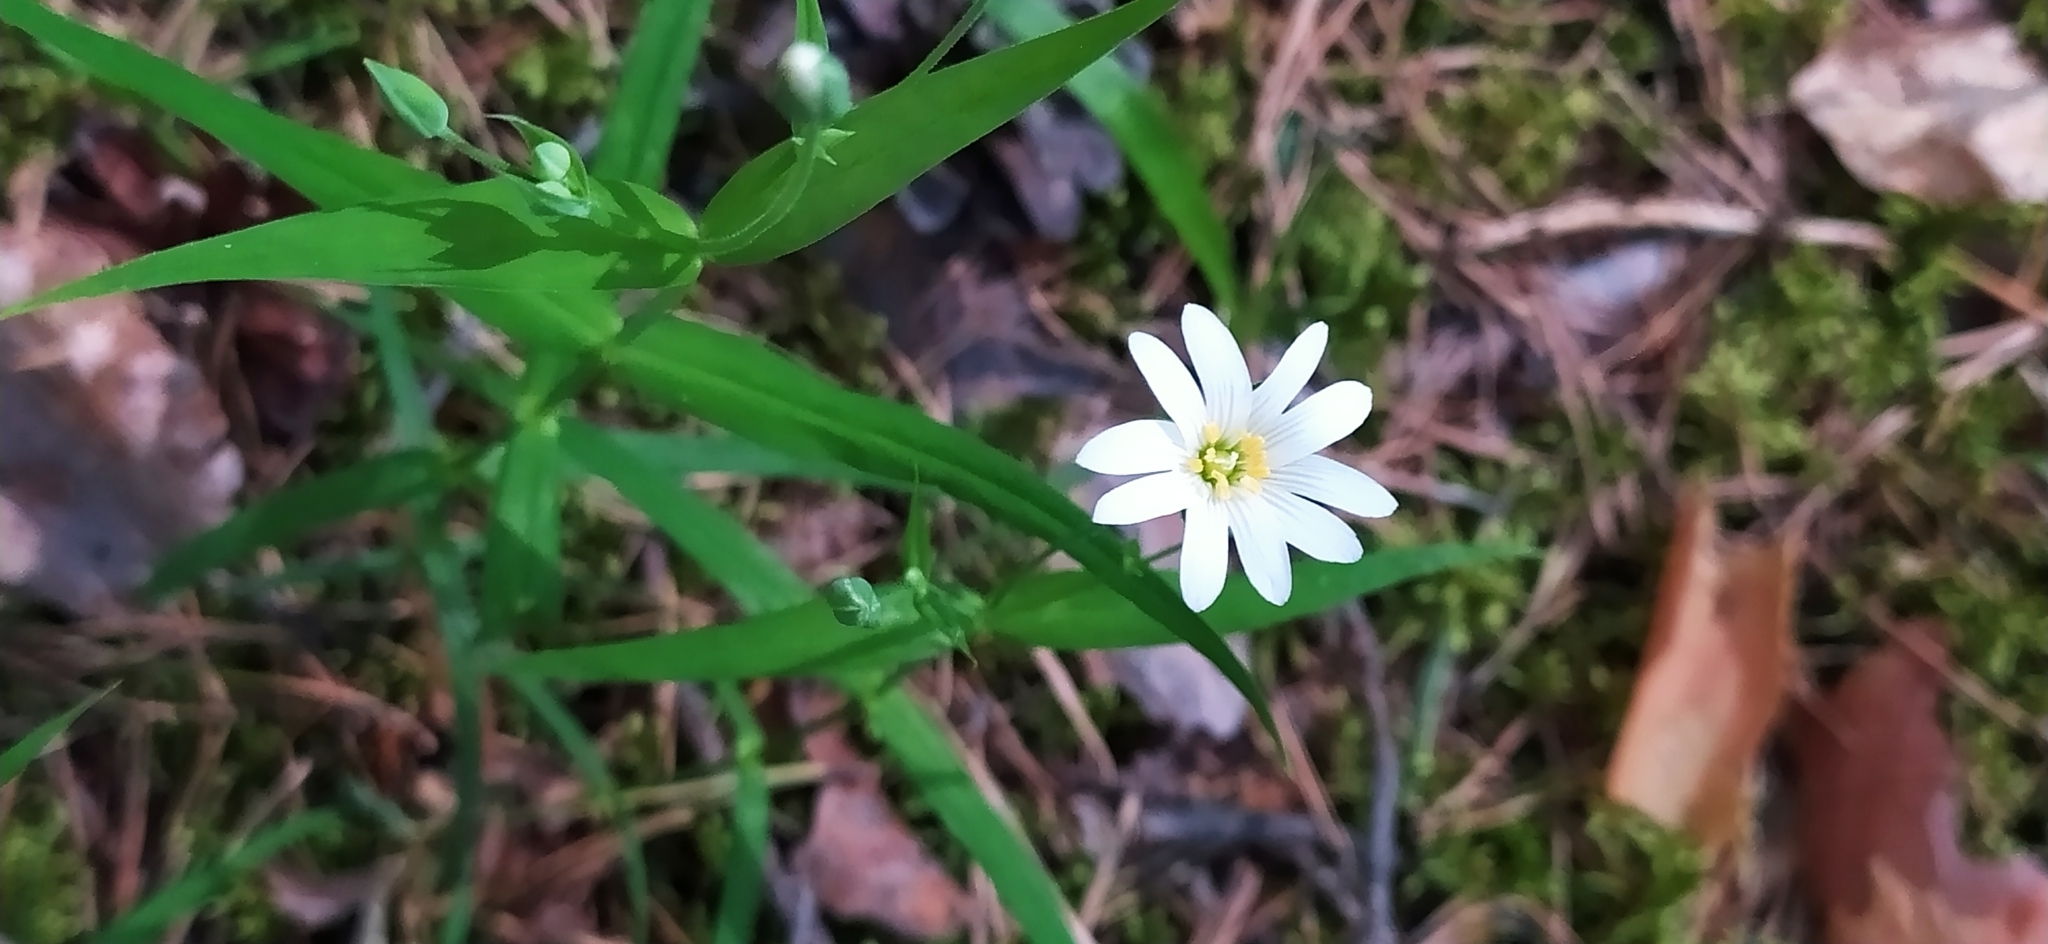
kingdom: Plantae
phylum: Tracheophyta
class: Magnoliopsida
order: Caryophyllales
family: Caryophyllaceae
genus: Rabelera
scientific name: Rabelera holostea
